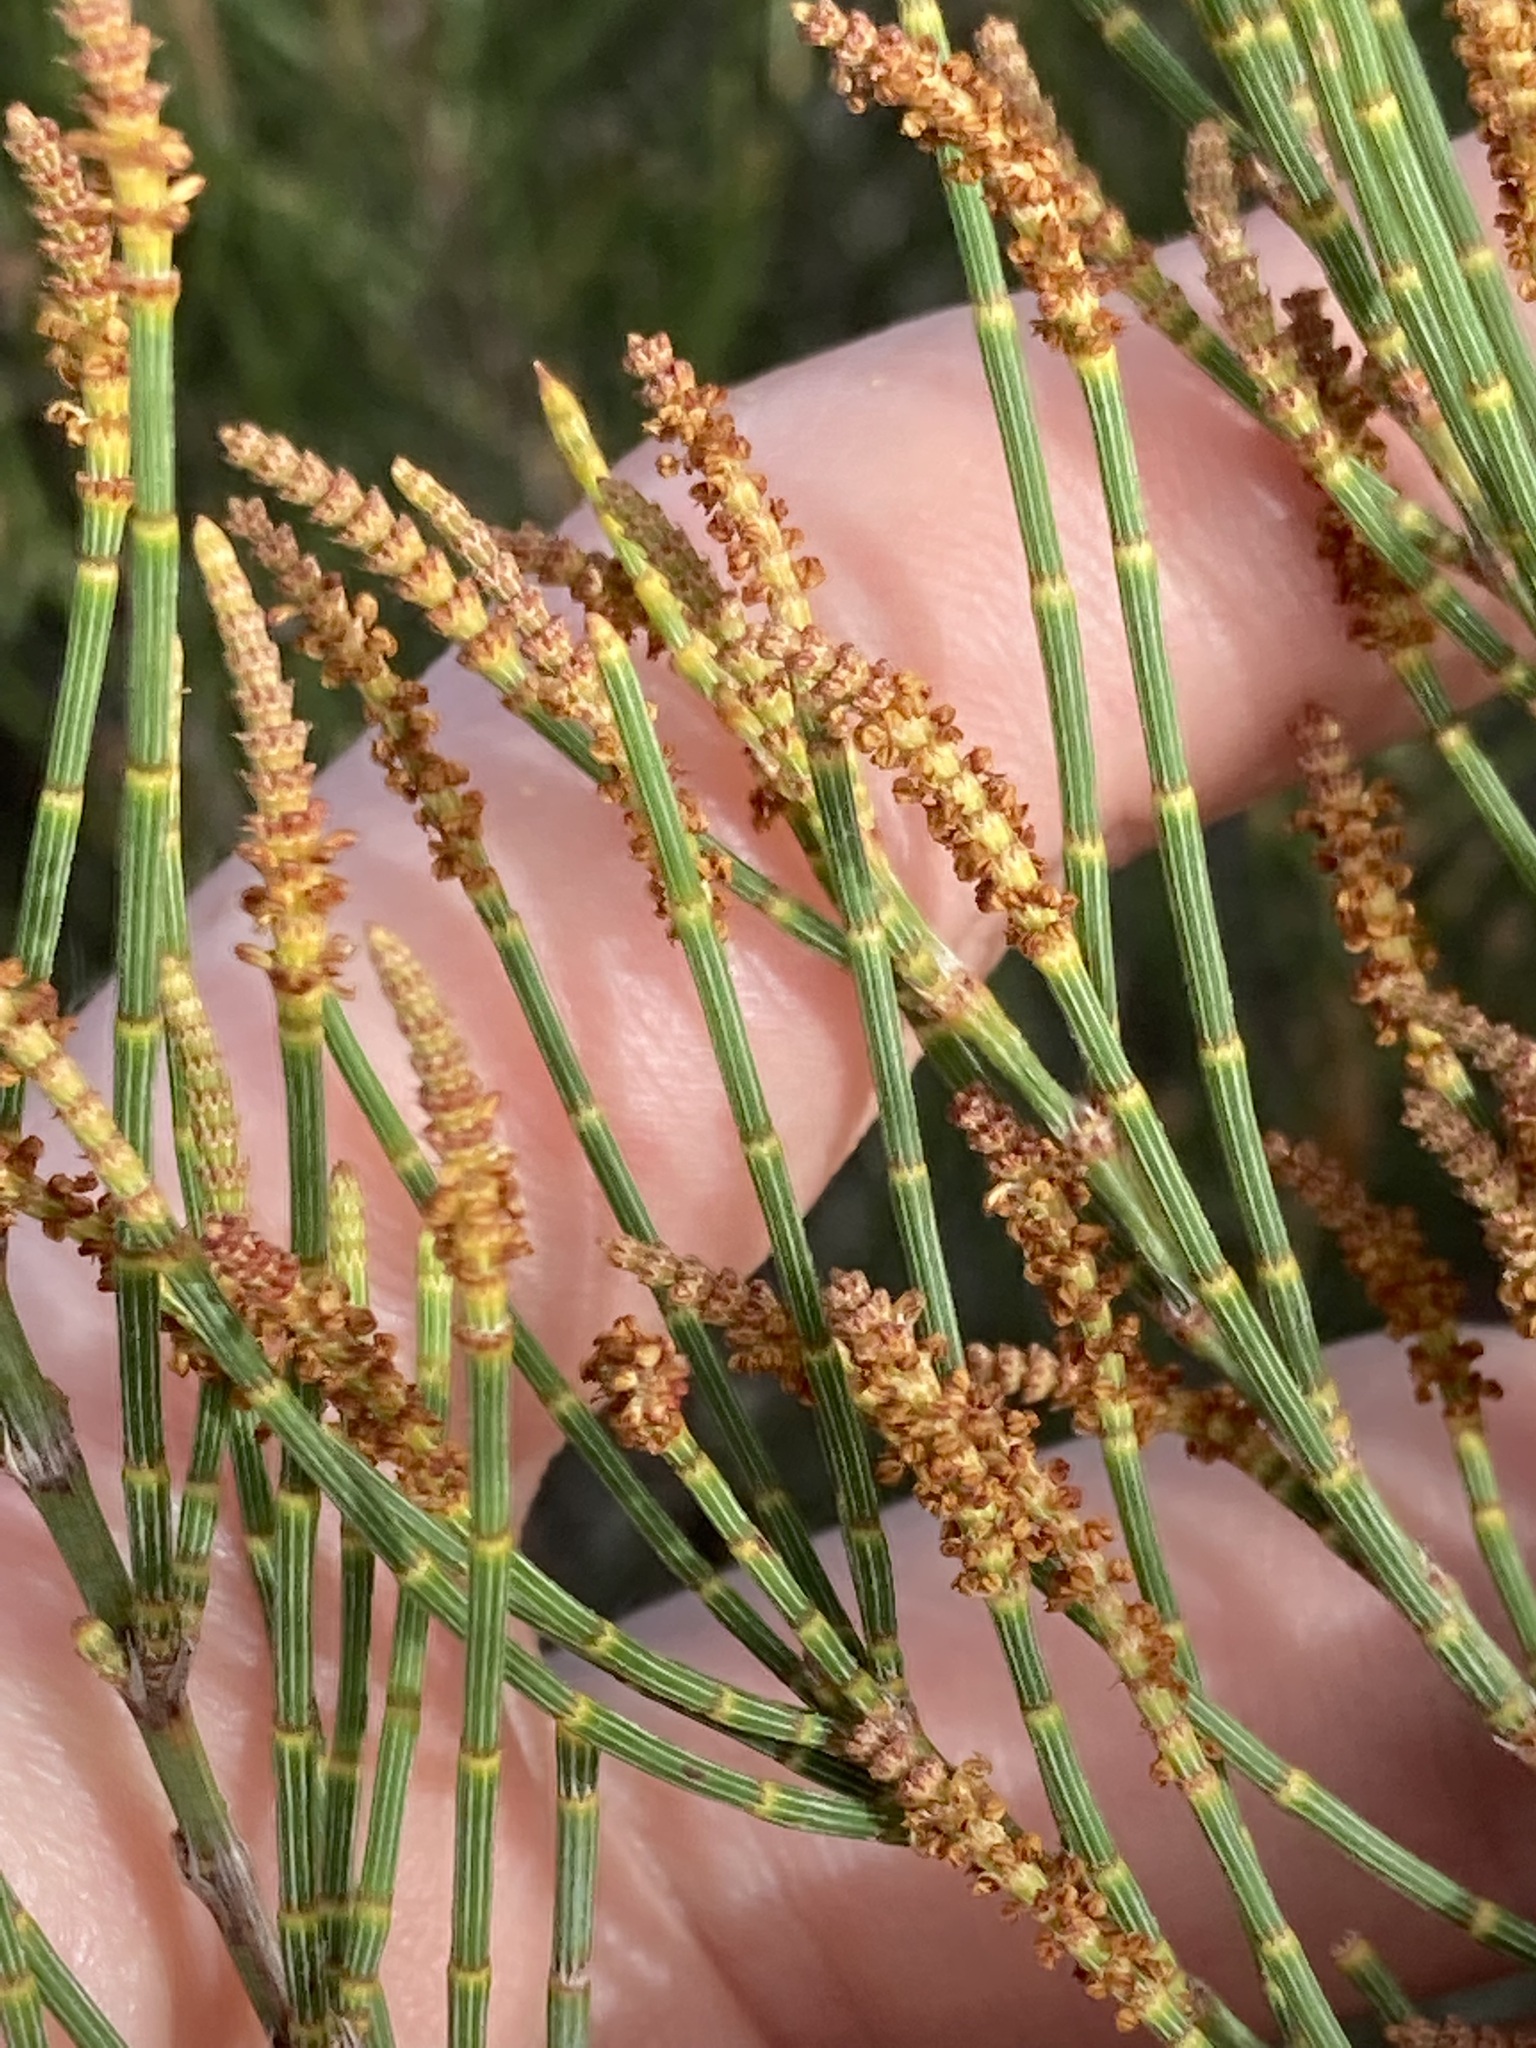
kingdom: Plantae
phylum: Tracheophyta
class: Magnoliopsida
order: Fagales
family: Casuarinaceae
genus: Allocasuarina
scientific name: Allocasuarina lehmanniana
